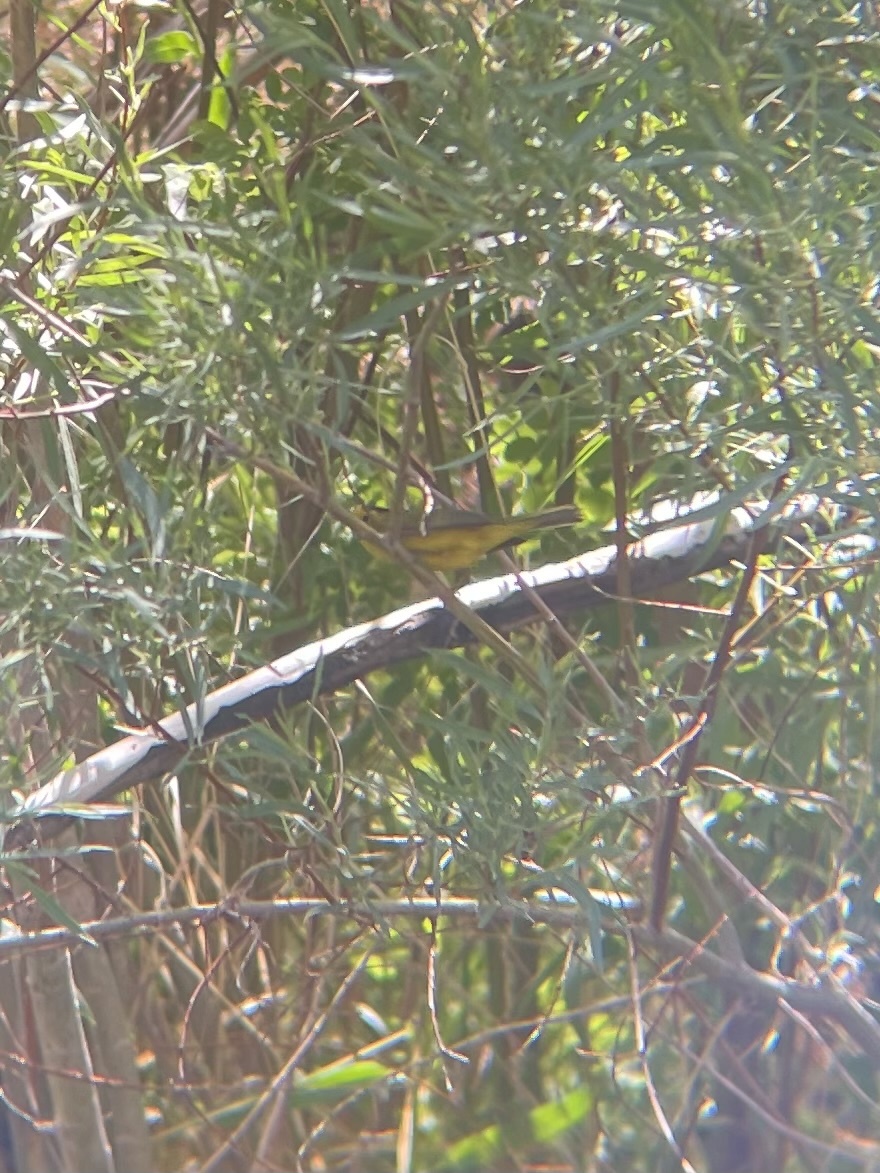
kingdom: Animalia
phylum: Chordata
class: Aves
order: Passeriformes
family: Parulidae
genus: Cardellina
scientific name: Cardellina pusilla
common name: Wilson's warbler
